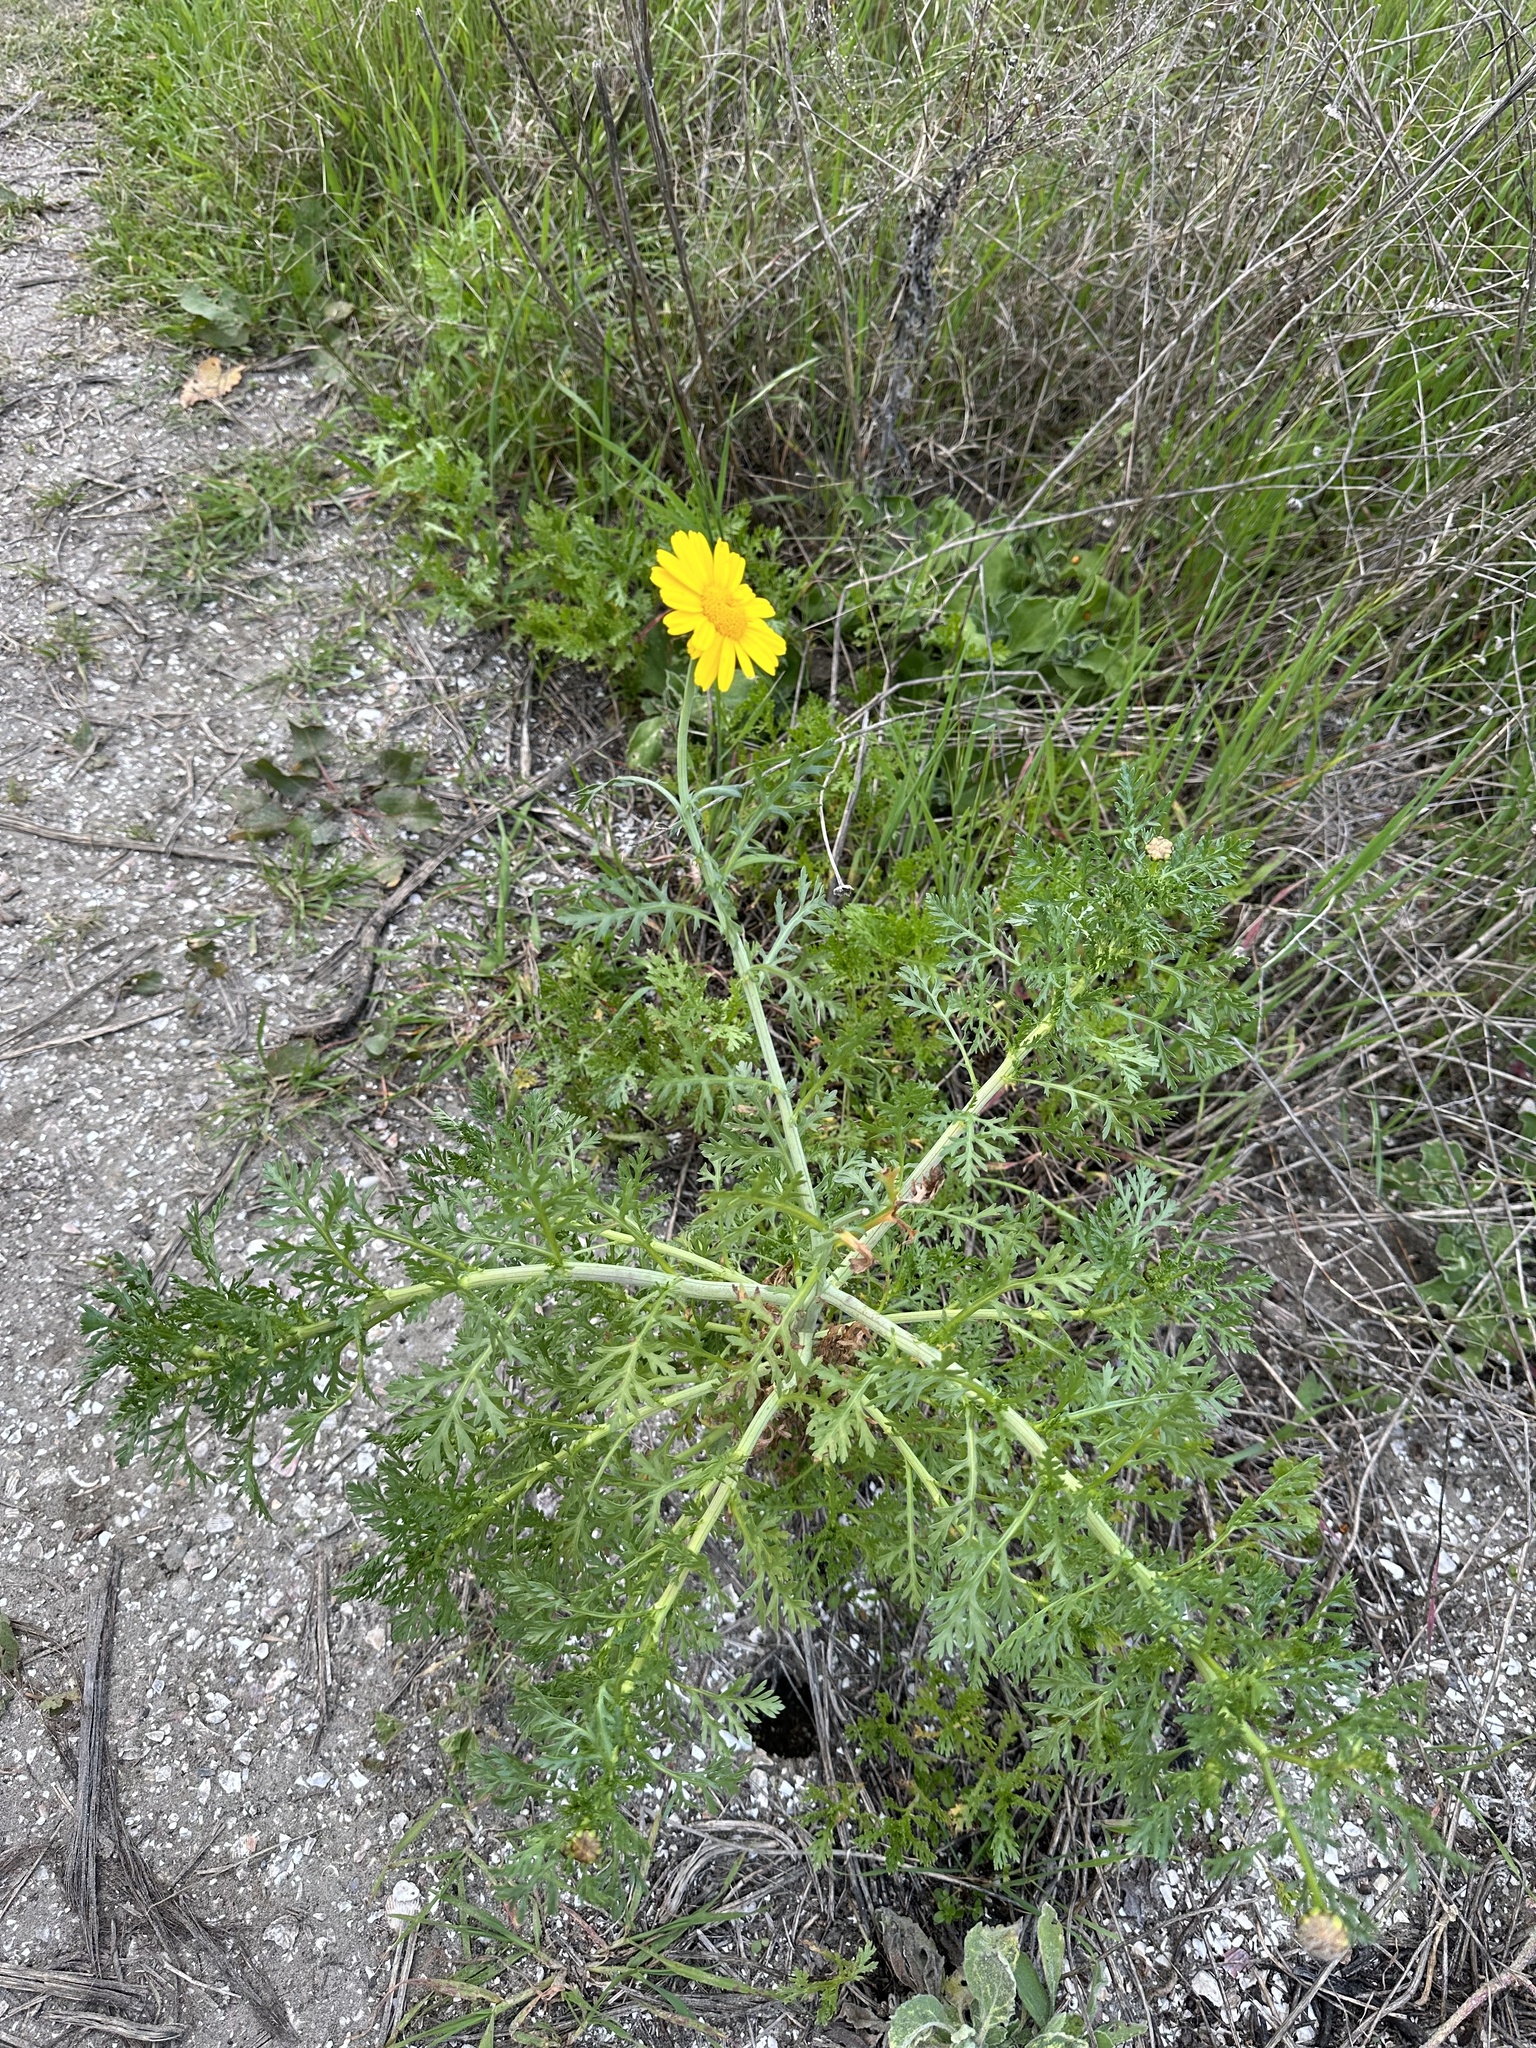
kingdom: Plantae
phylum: Tracheophyta
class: Magnoliopsida
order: Asterales
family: Asteraceae
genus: Glebionis
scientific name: Glebionis coronaria
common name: Crowndaisy
